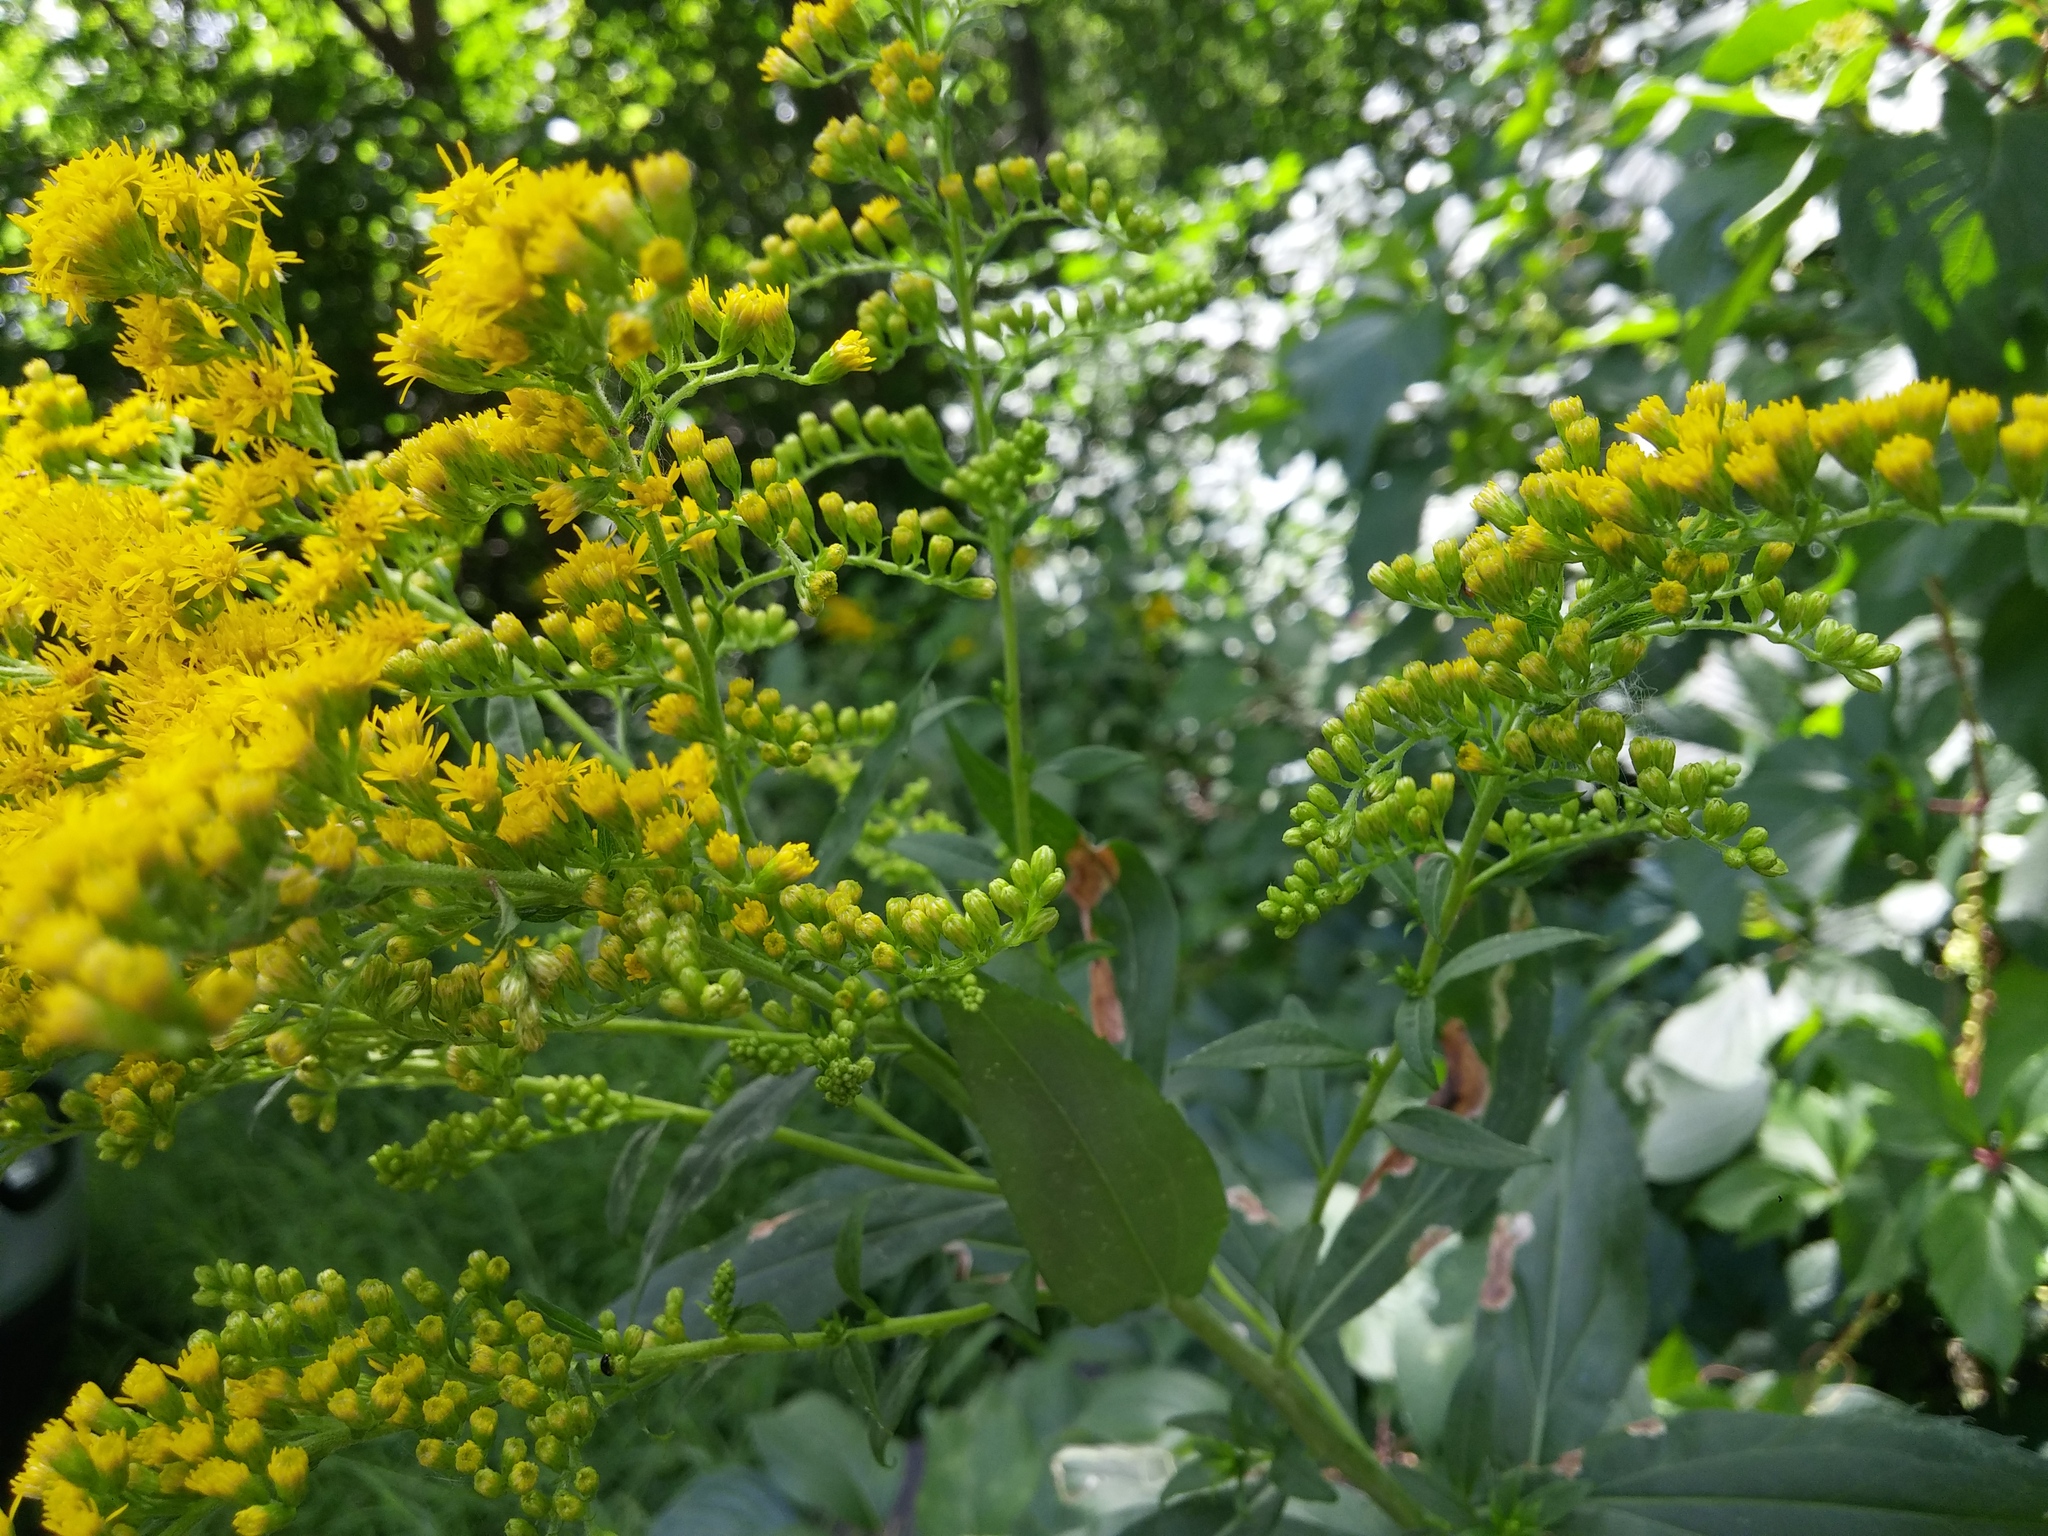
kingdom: Plantae
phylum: Tracheophyta
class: Magnoliopsida
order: Asterales
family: Asteraceae
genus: Solidago
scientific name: Solidago gigantea
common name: Giant goldenrod
